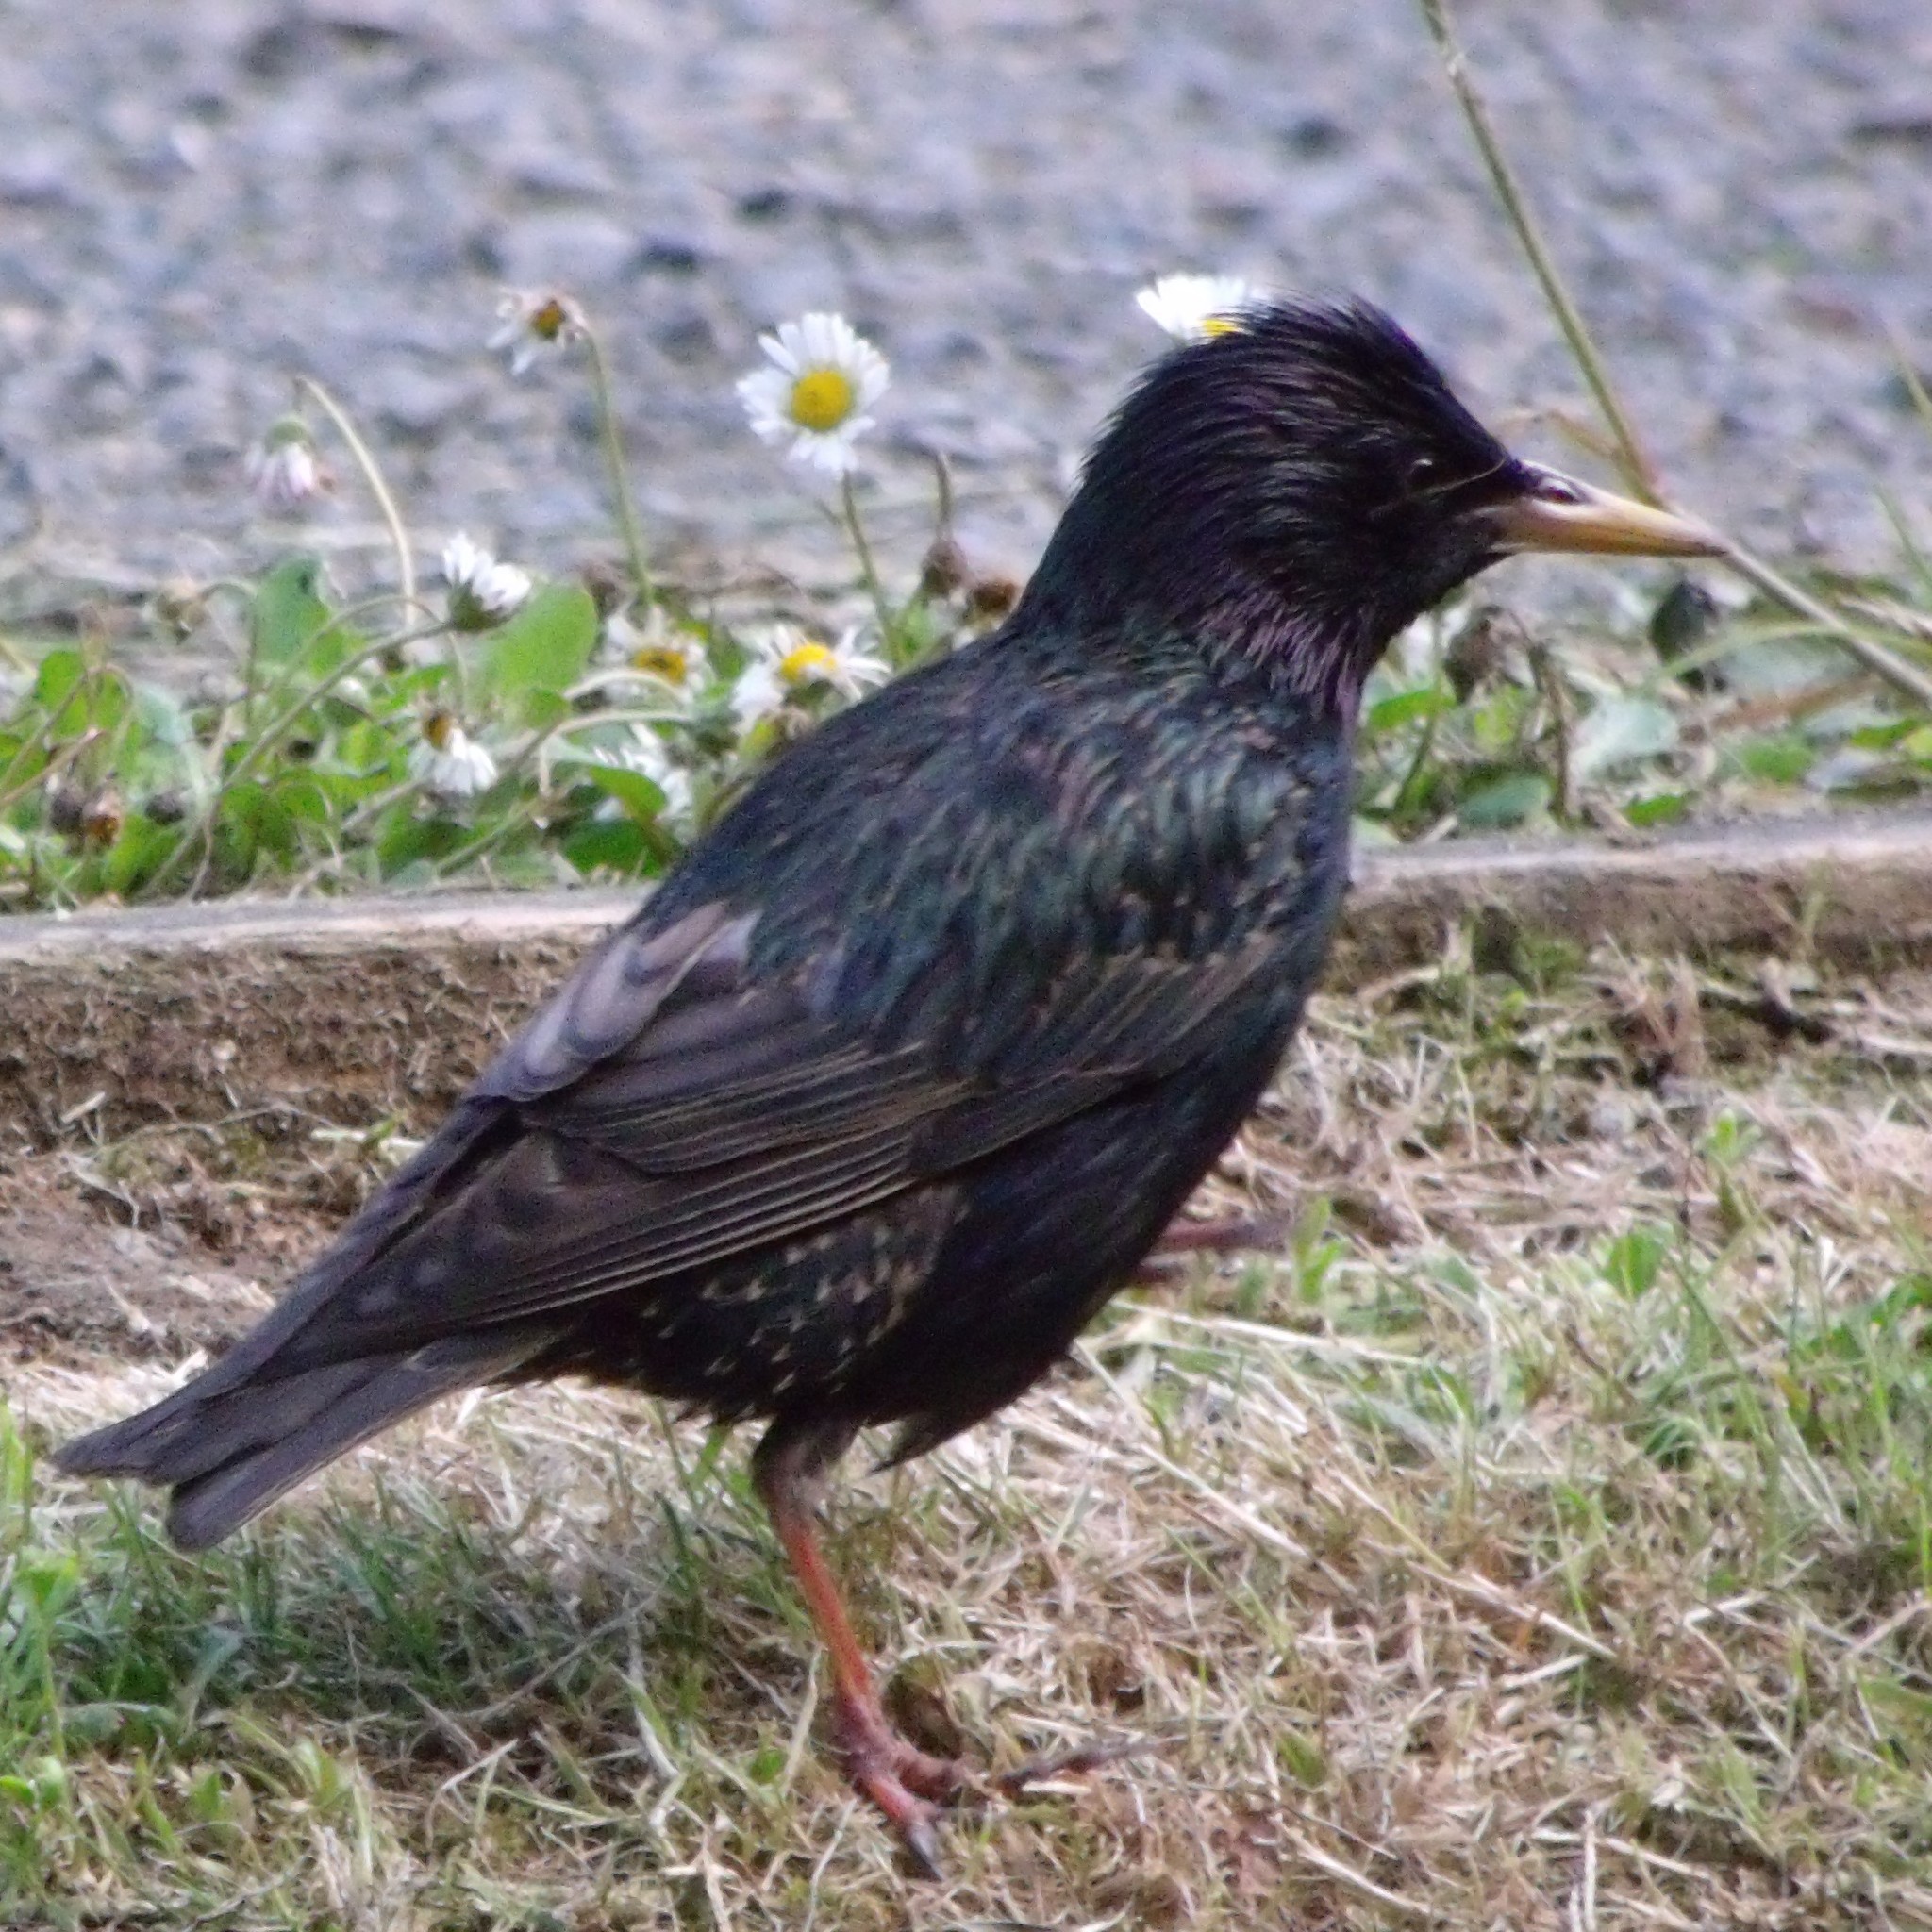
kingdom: Animalia
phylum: Chordata
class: Aves
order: Passeriformes
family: Sturnidae
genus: Sturnus
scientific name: Sturnus vulgaris
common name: Common starling
